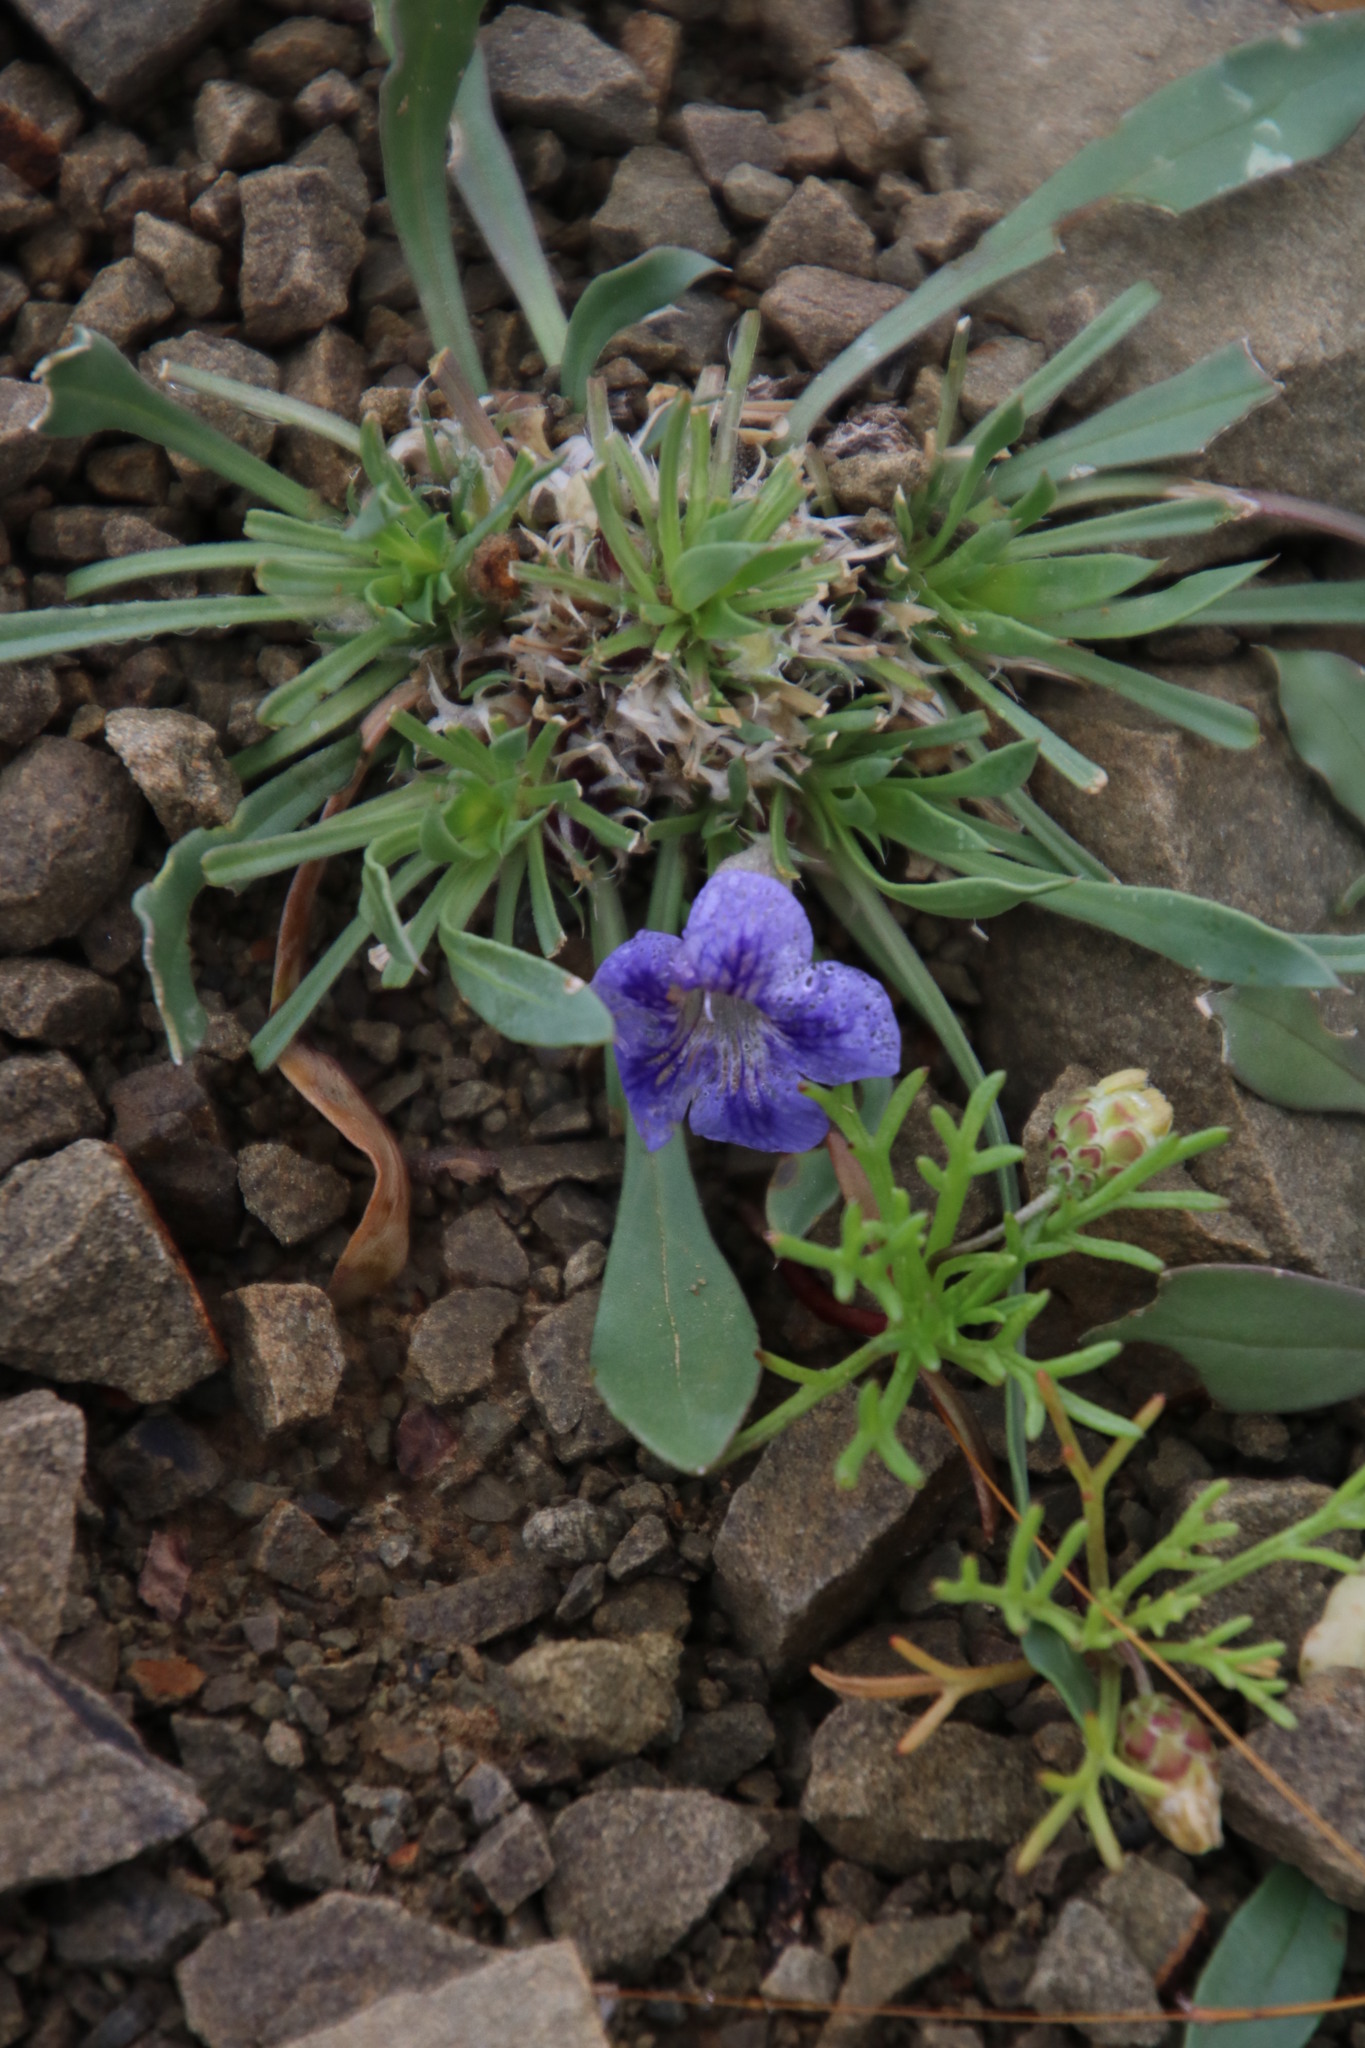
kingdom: Plantae
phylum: Tracheophyta
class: Magnoliopsida
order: Lamiales
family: Scrophulariaceae
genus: Aptosimum
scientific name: Aptosimum indivisum
